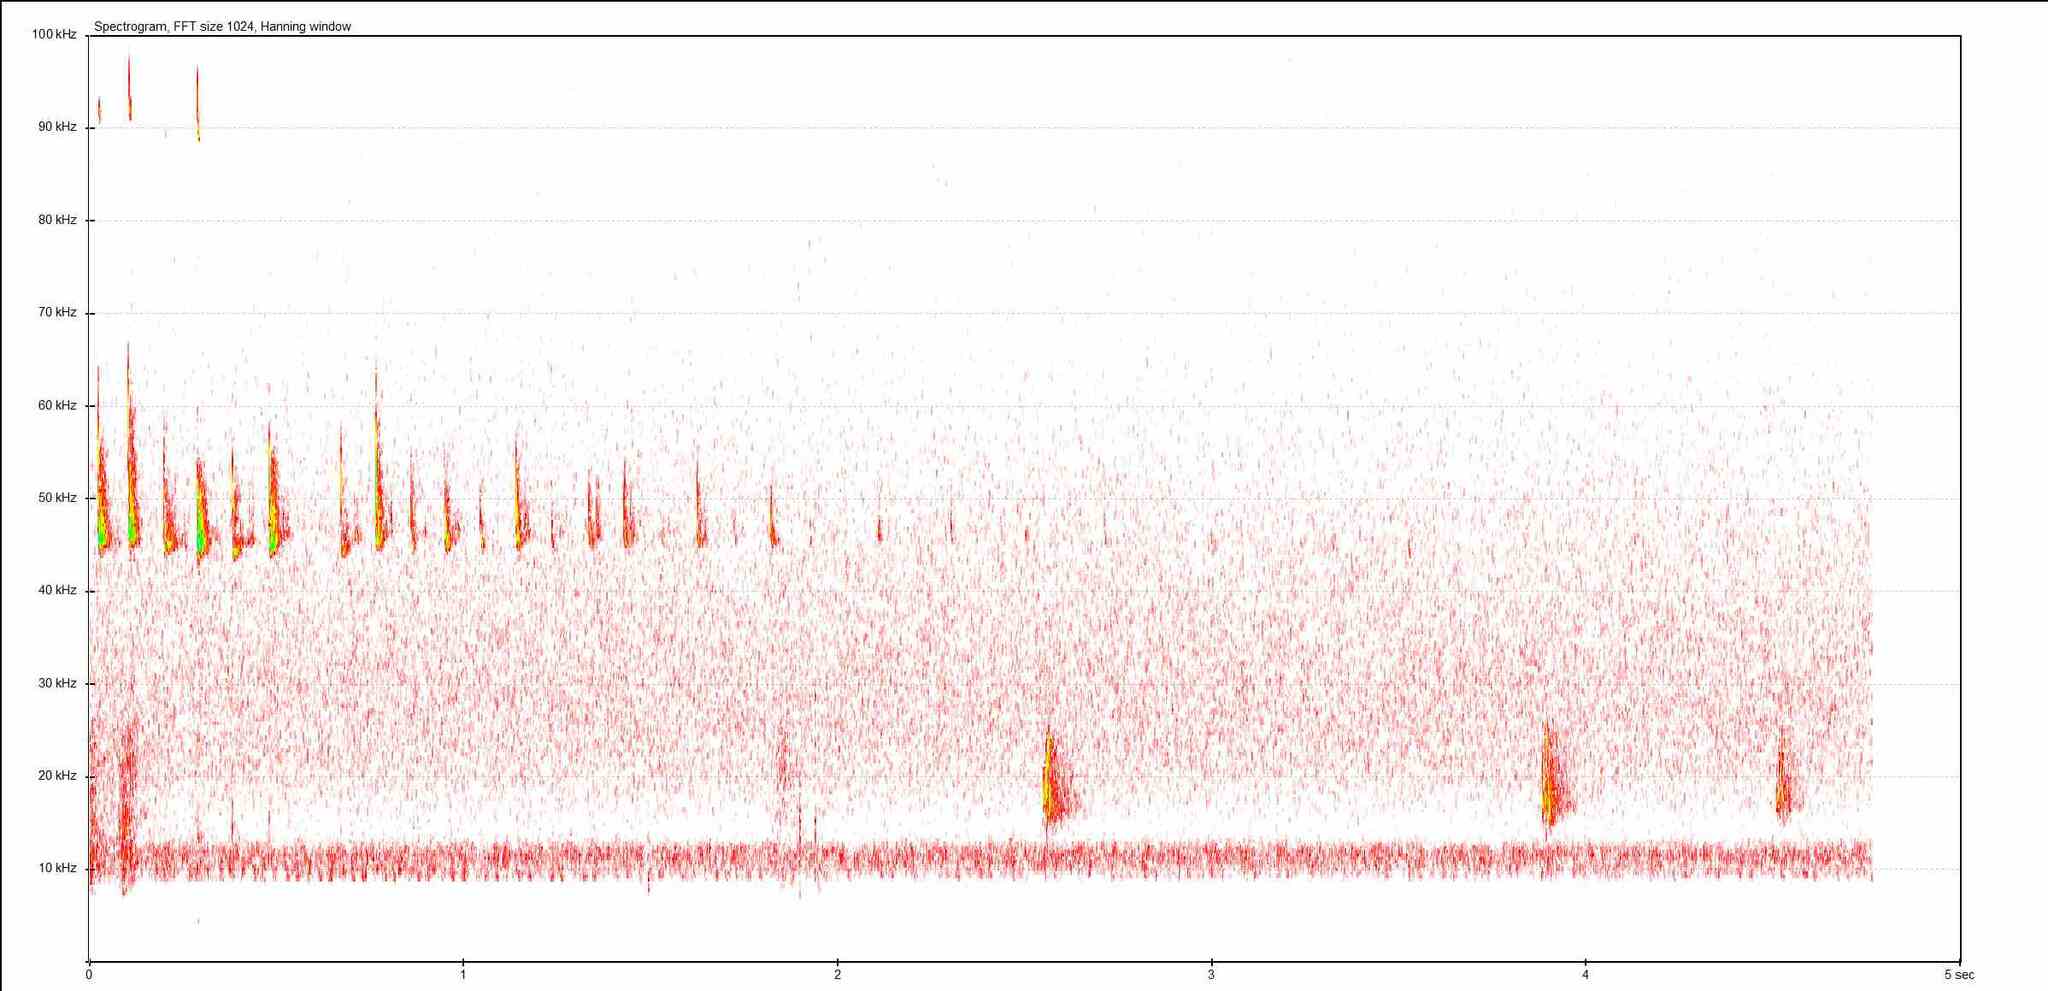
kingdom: Animalia
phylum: Chordata
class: Mammalia
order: Chiroptera
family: Vespertilionidae
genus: Pipistrellus
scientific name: Pipistrellus pipistrellus
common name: Common pipistrelle
